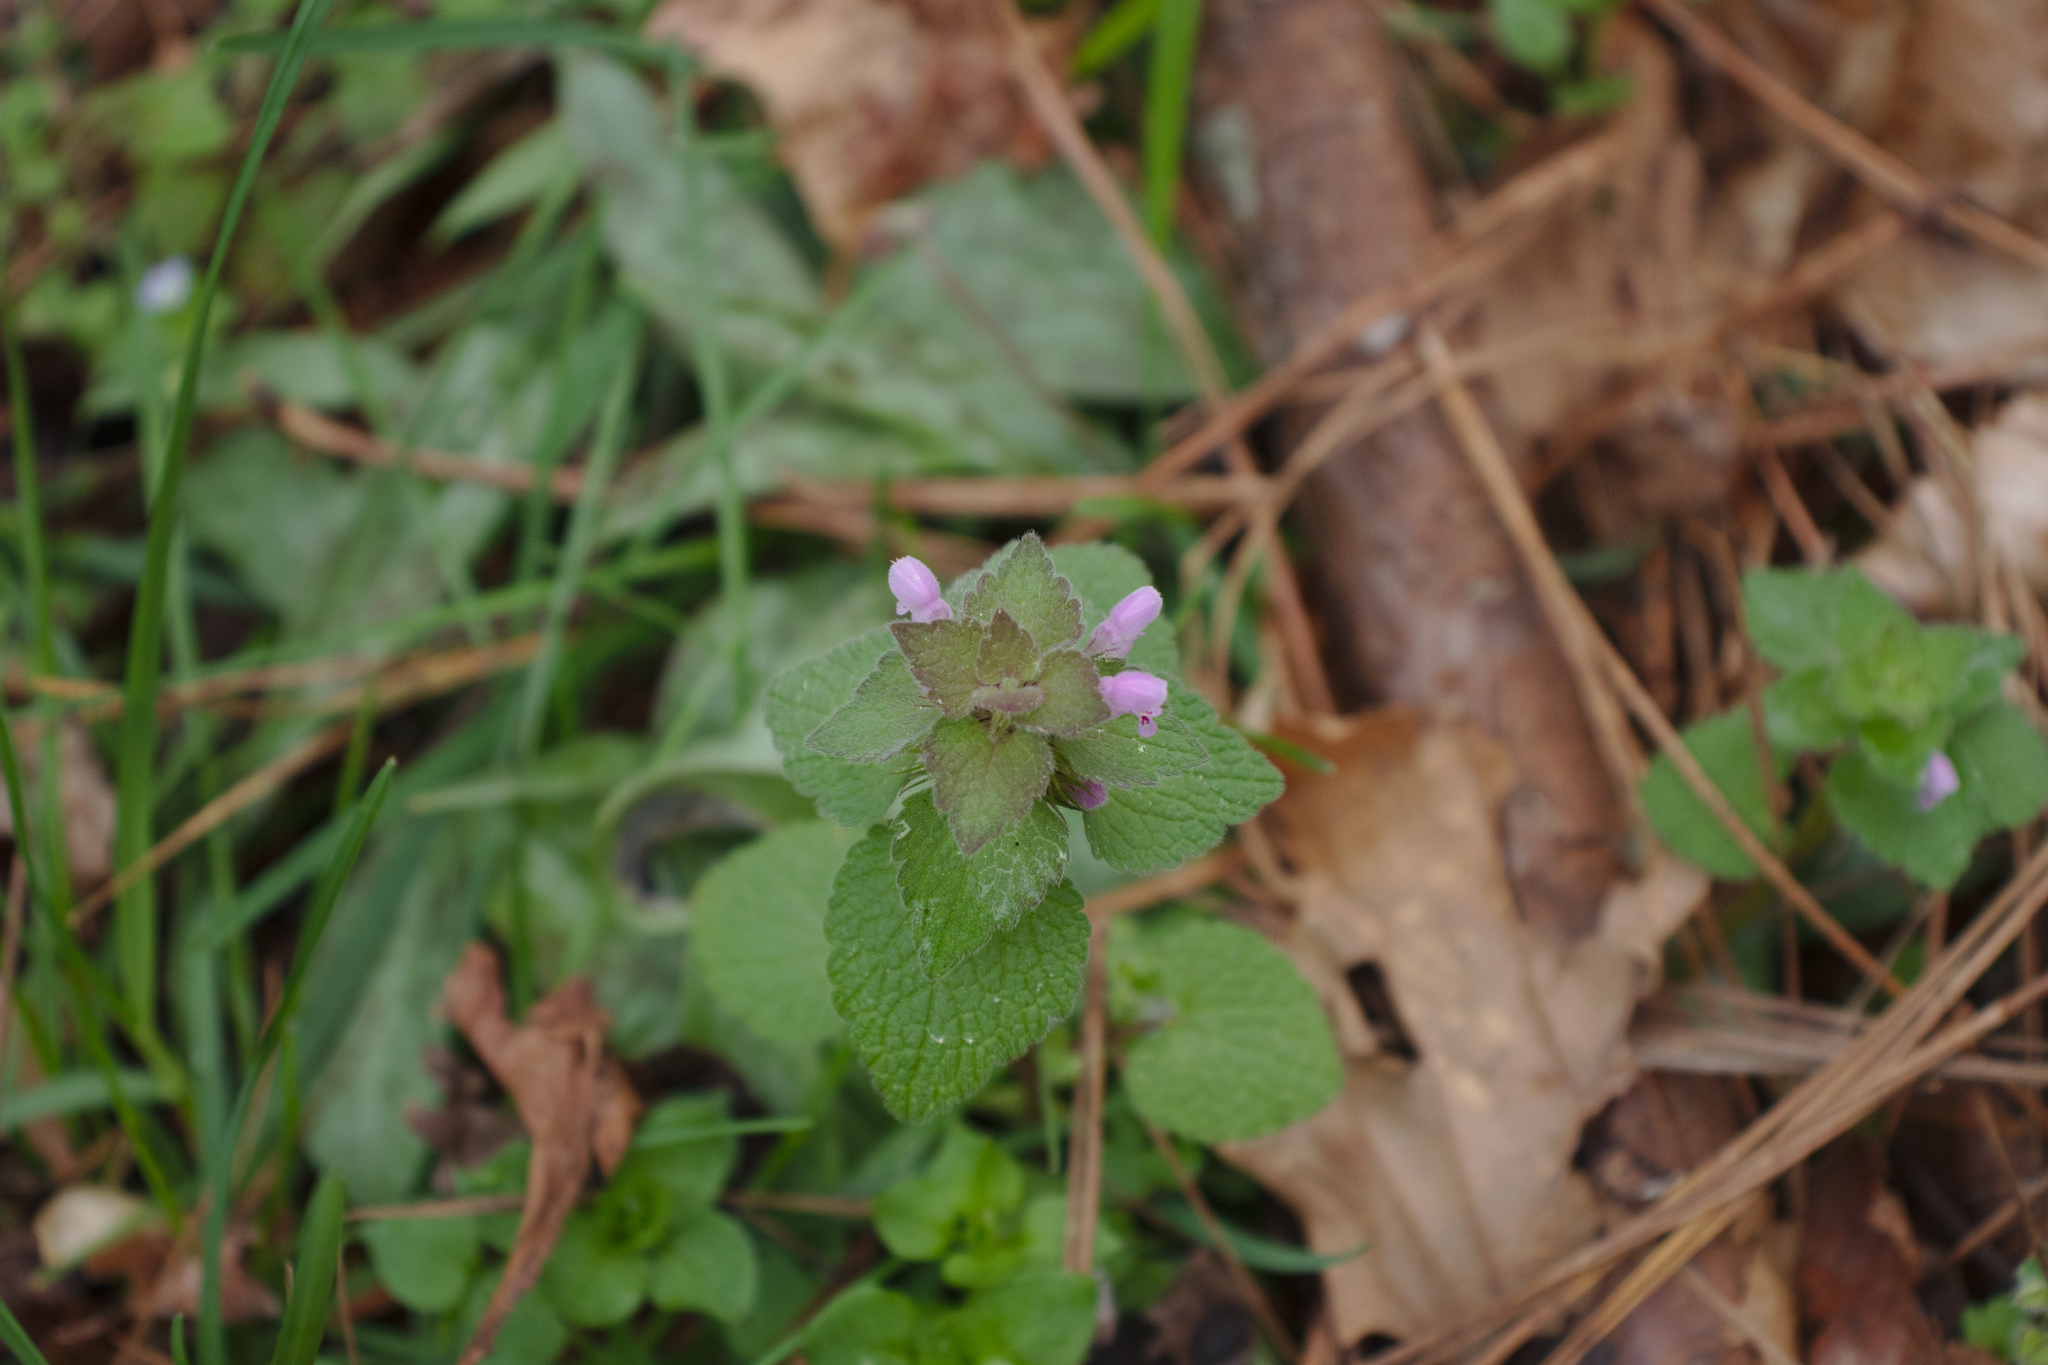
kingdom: Plantae
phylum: Tracheophyta
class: Magnoliopsida
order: Lamiales
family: Lamiaceae
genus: Lamium
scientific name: Lamium purpureum
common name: Red dead-nettle
